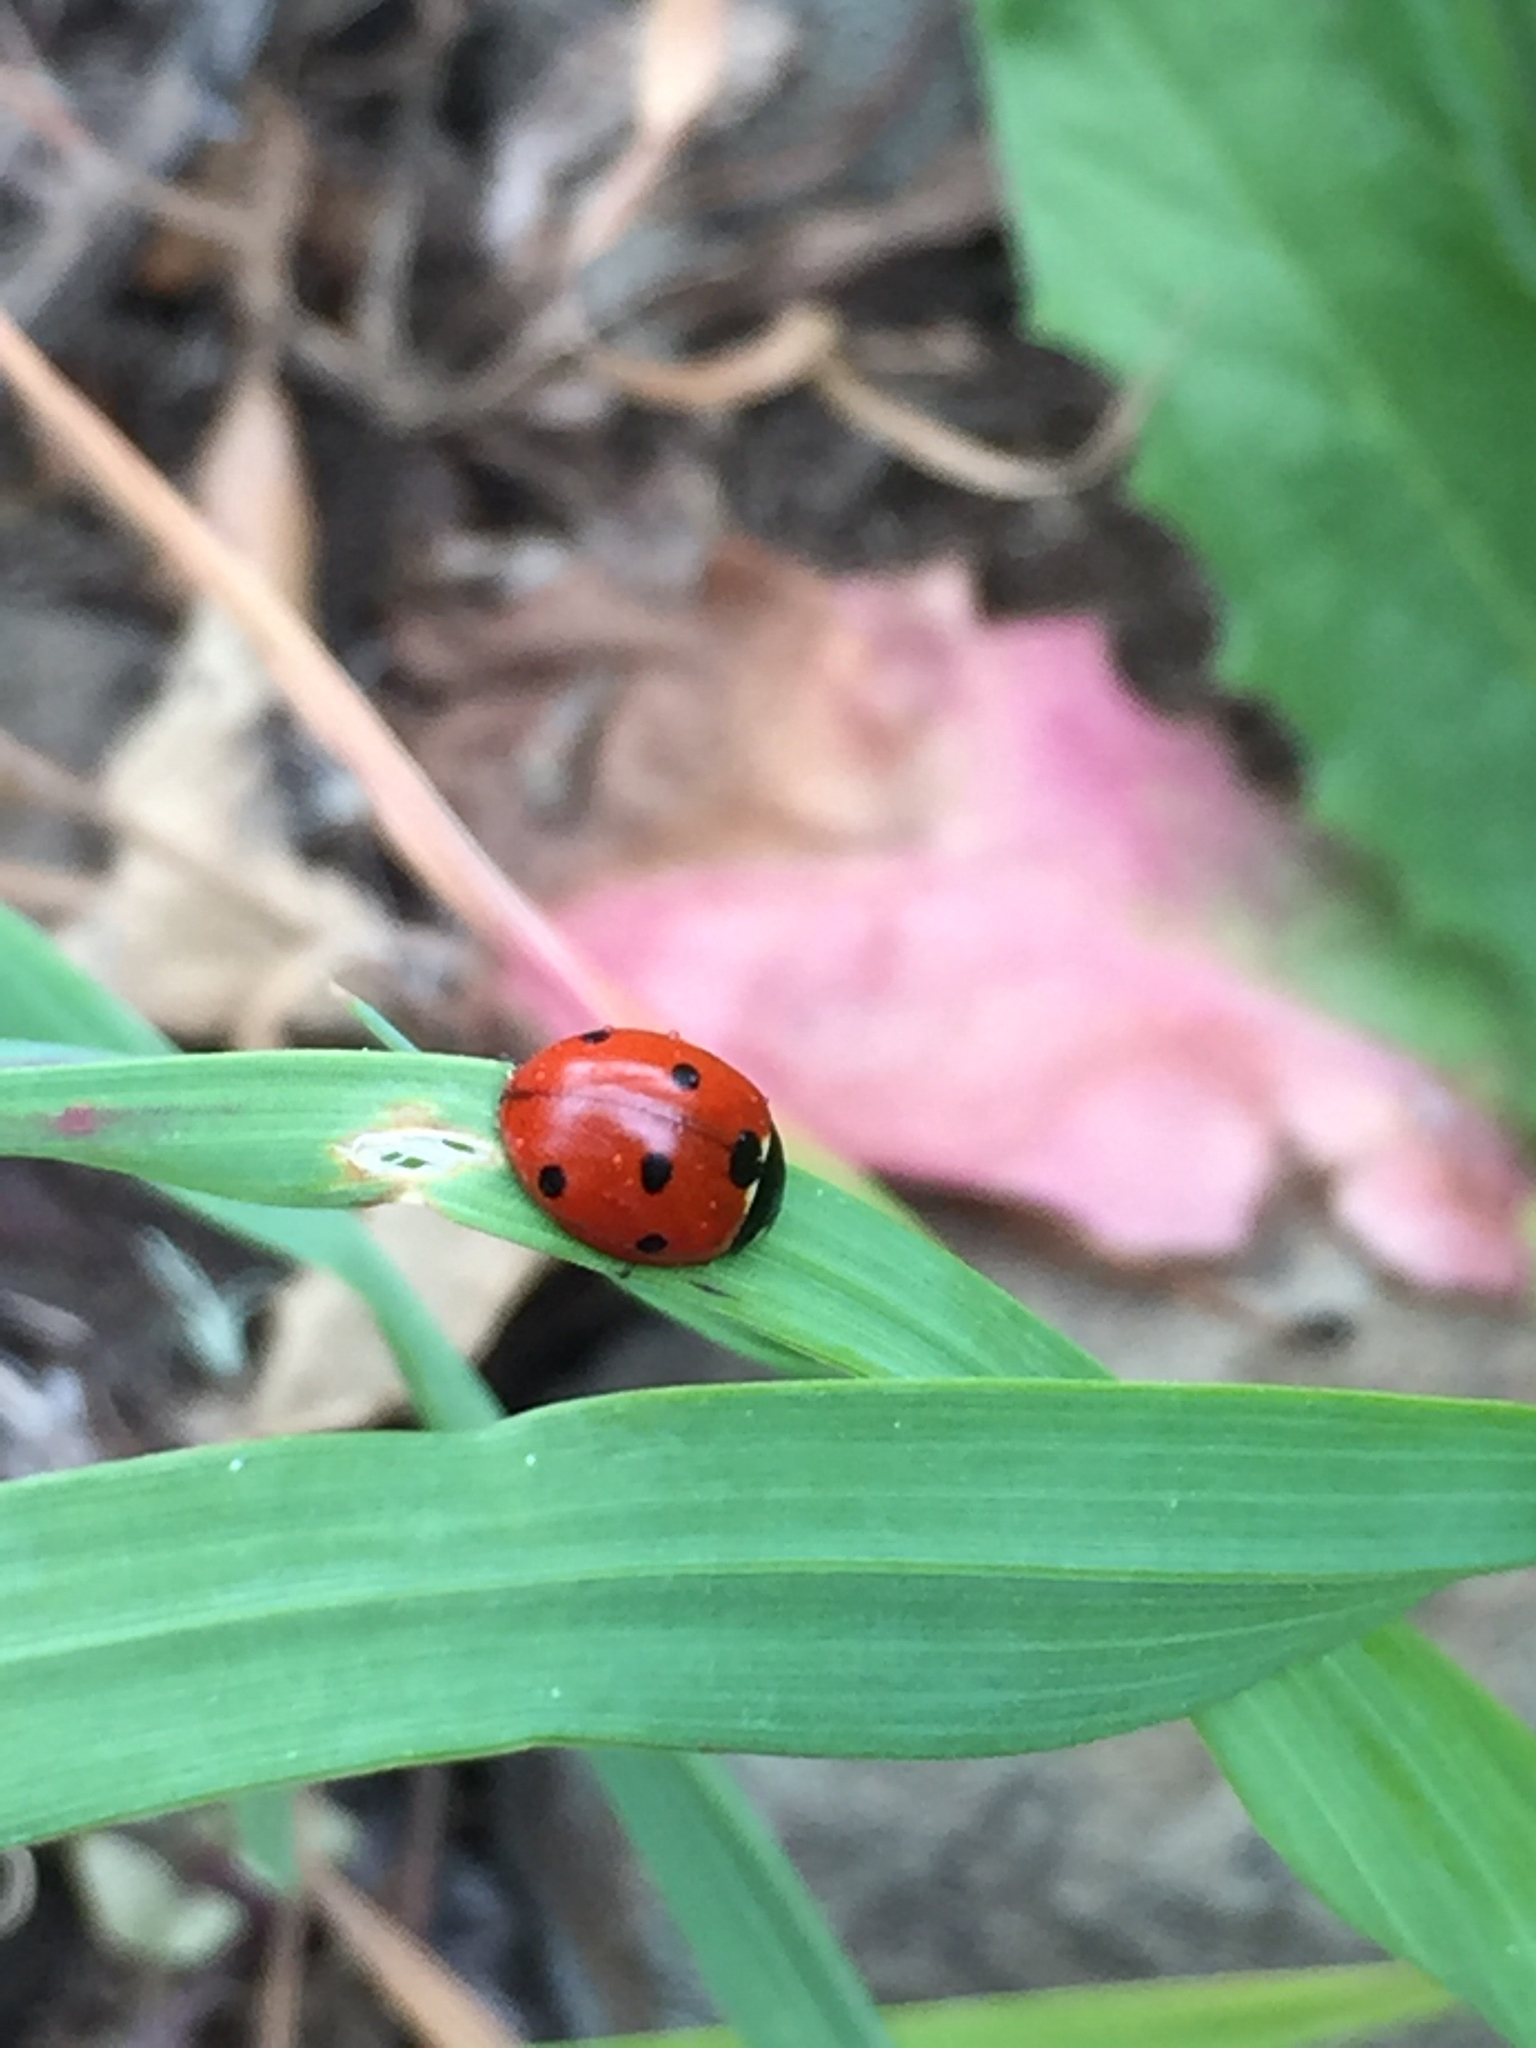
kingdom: Animalia
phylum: Arthropoda
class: Insecta
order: Coleoptera
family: Coccinellidae
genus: Coccinella
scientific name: Coccinella septempunctata
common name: Sevenspotted lady beetle
